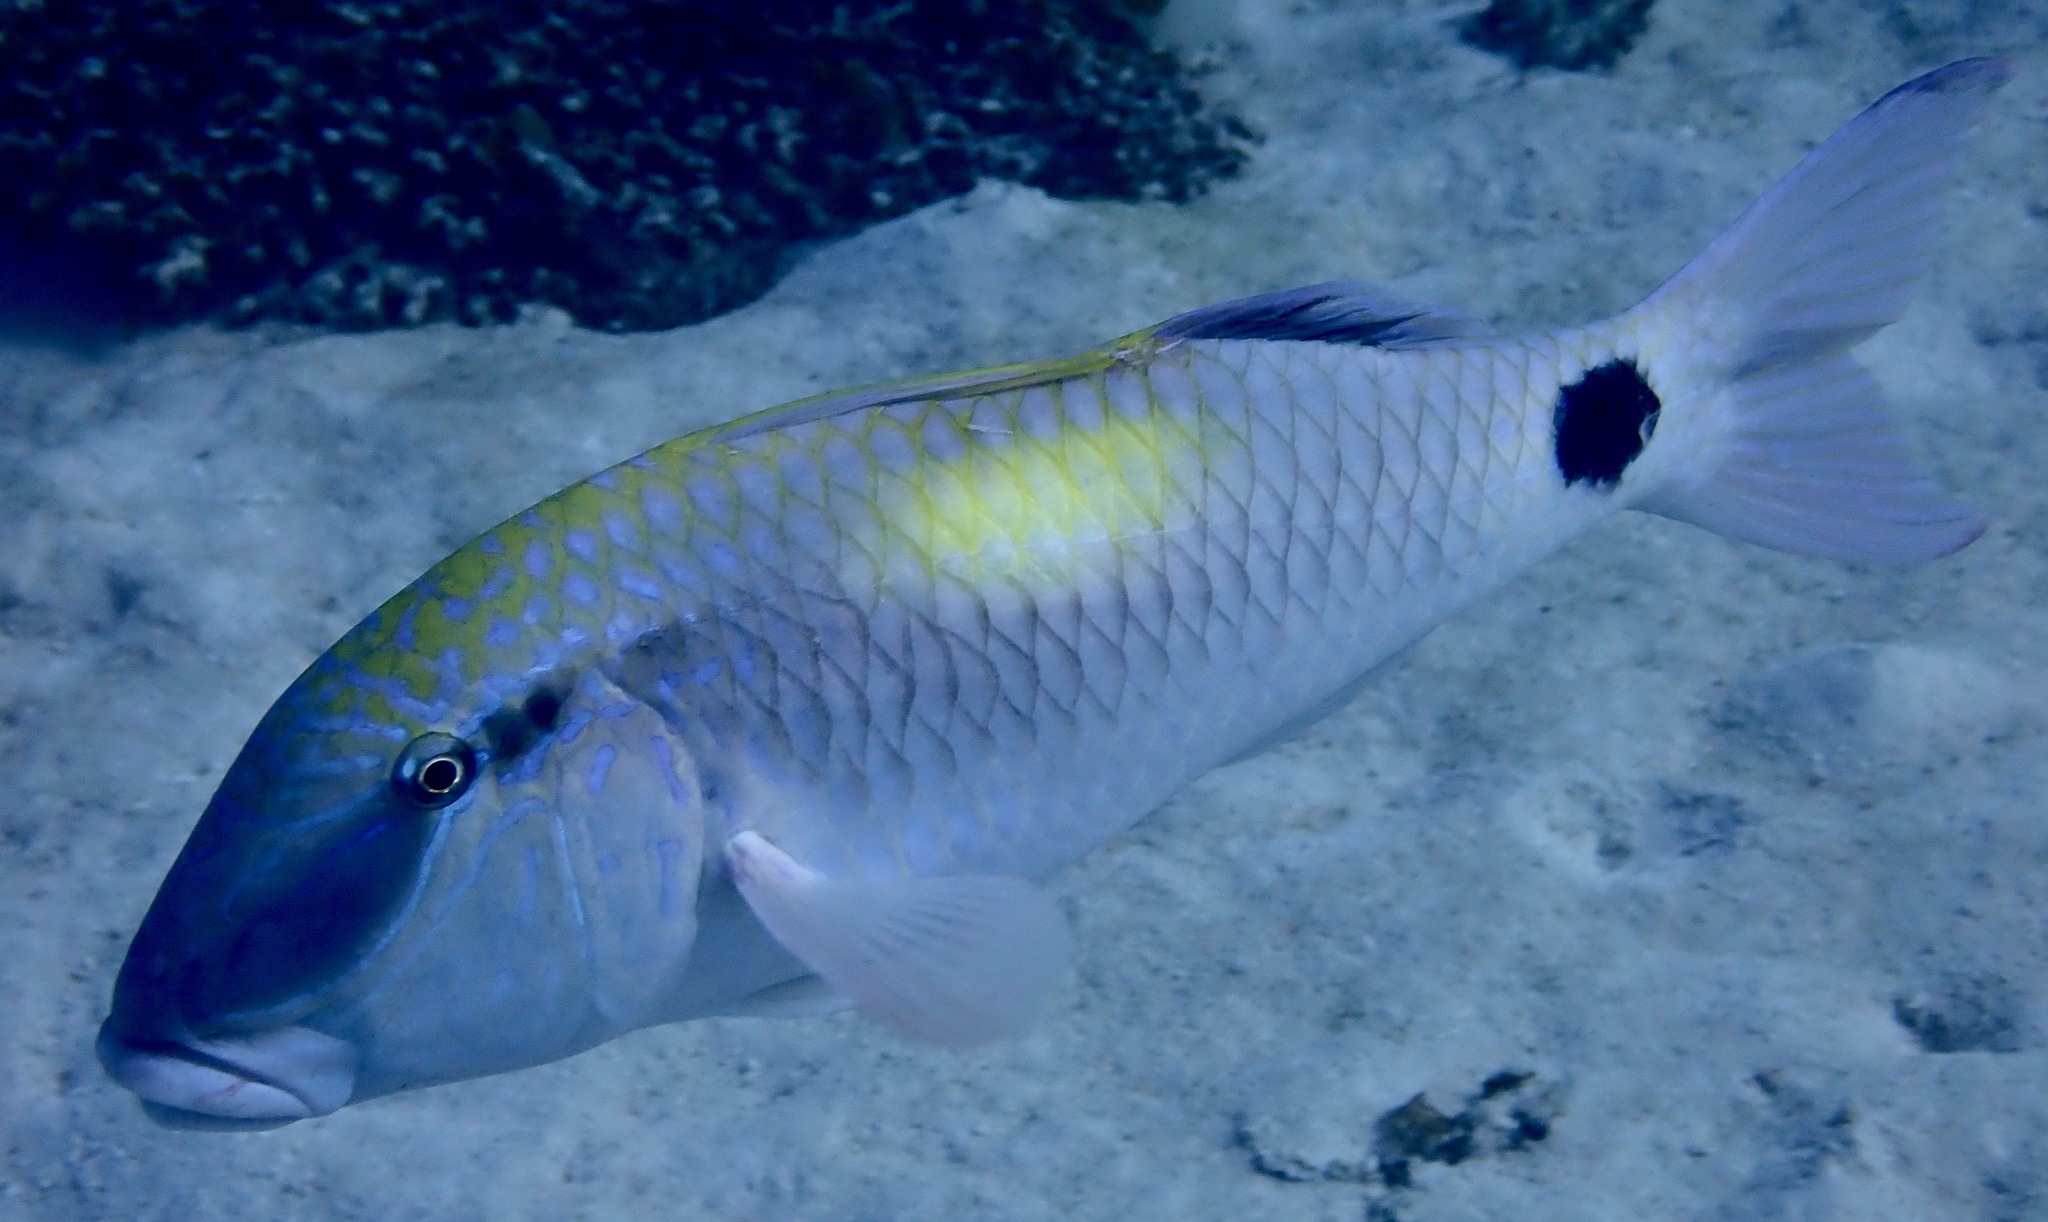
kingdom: Animalia
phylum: Chordata
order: Perciformes
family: Mullidae
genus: Parupeneus
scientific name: Parupeneus indicus
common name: Indian goatfish
